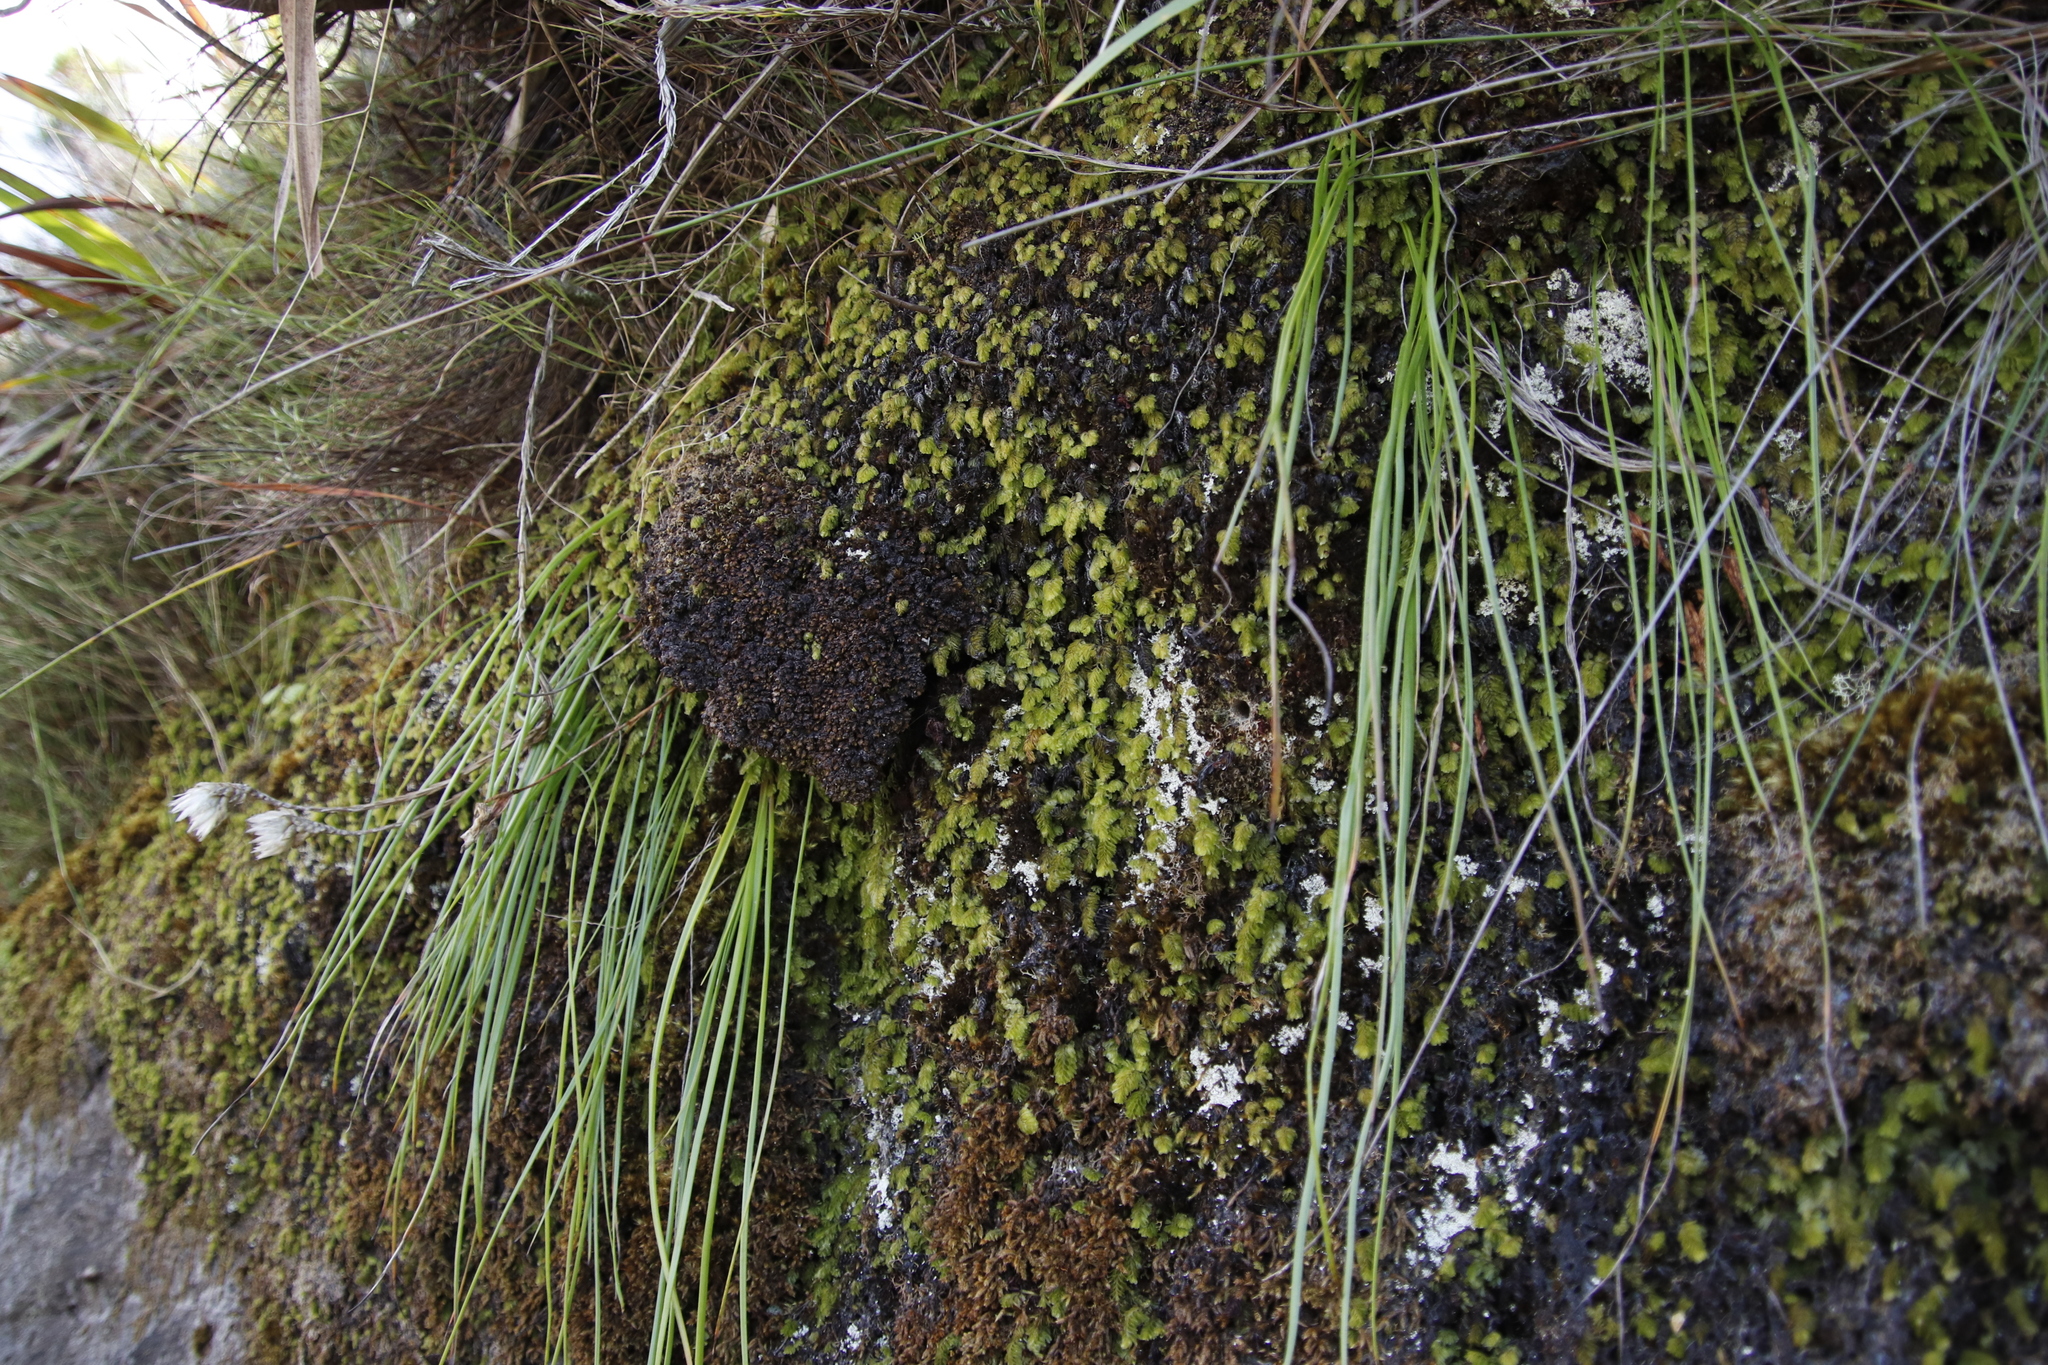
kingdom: Plantae
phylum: Tracheophyta
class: Polypodiopsida
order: Hymenophyllales
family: Hymenophyllaceae
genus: Hymenophyllum
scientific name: Hymenophyllum capense
